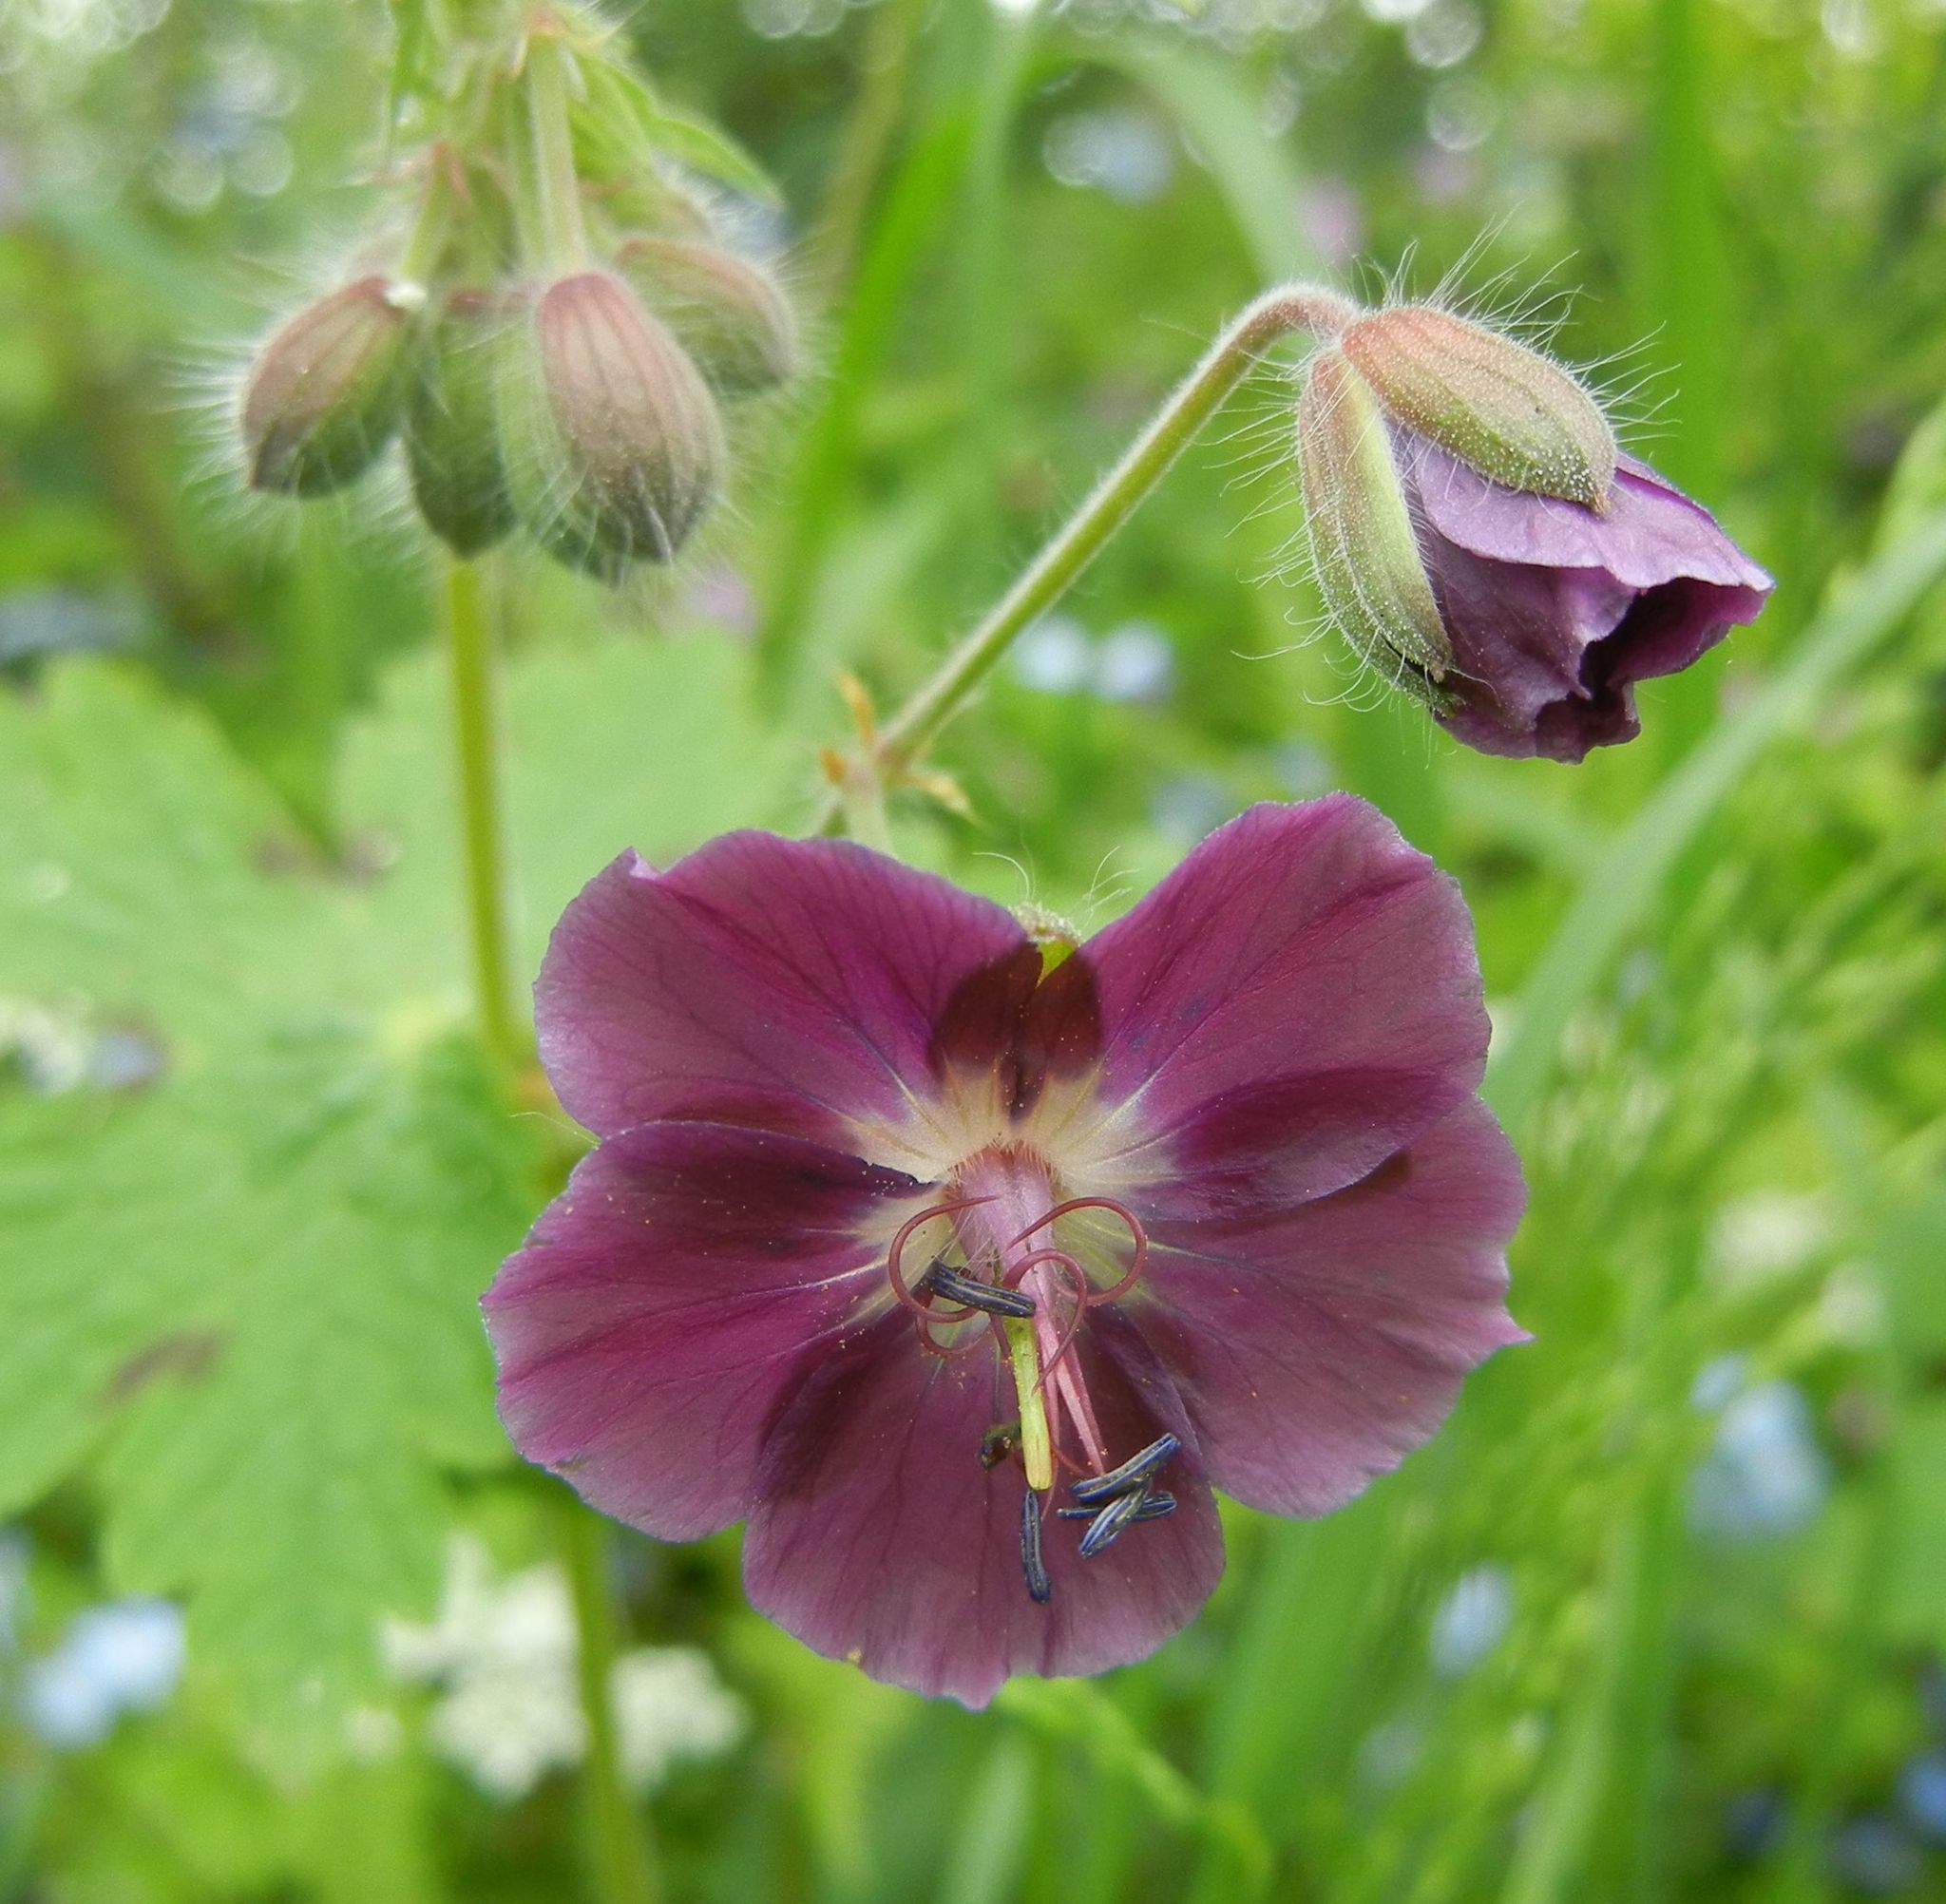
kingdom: Plantae
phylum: Tracheophyta
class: Magnoliopsida
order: Geraniales
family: Geraniaceae
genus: Geranium
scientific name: Geranium phaeum
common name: Dusky crane's-bill
